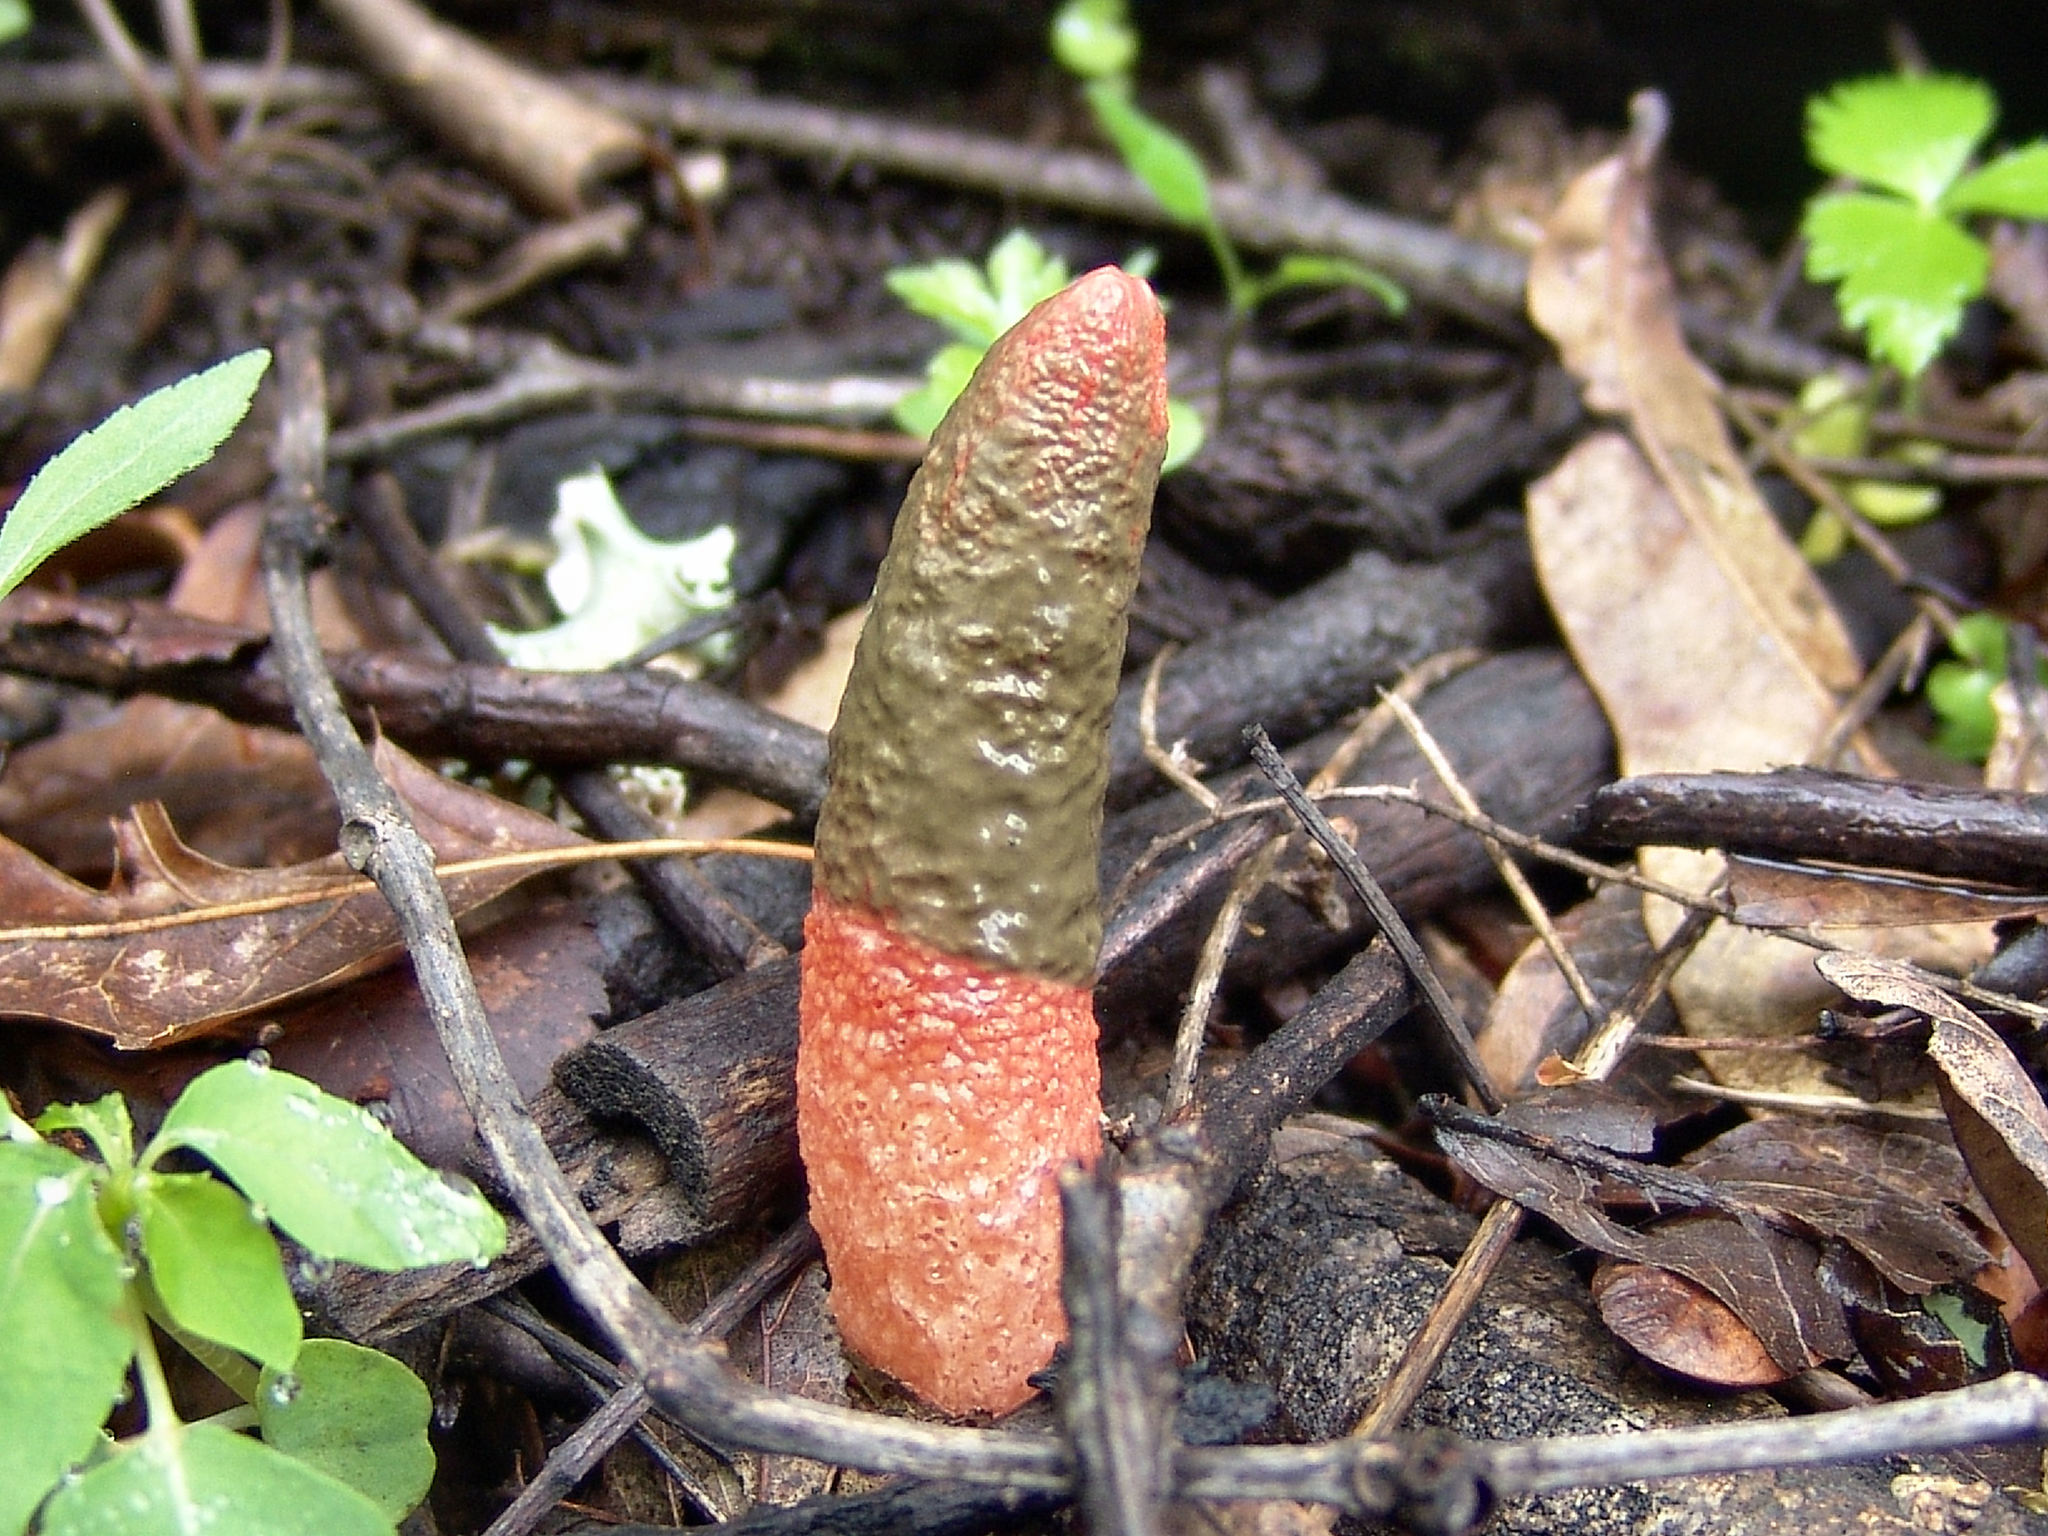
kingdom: Fungi
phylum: Basidiomycota
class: Agaricomycetes
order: Phallales
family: Phallaceae
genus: Mutinus
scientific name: Mutinus elegans
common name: Devil's dipstick
